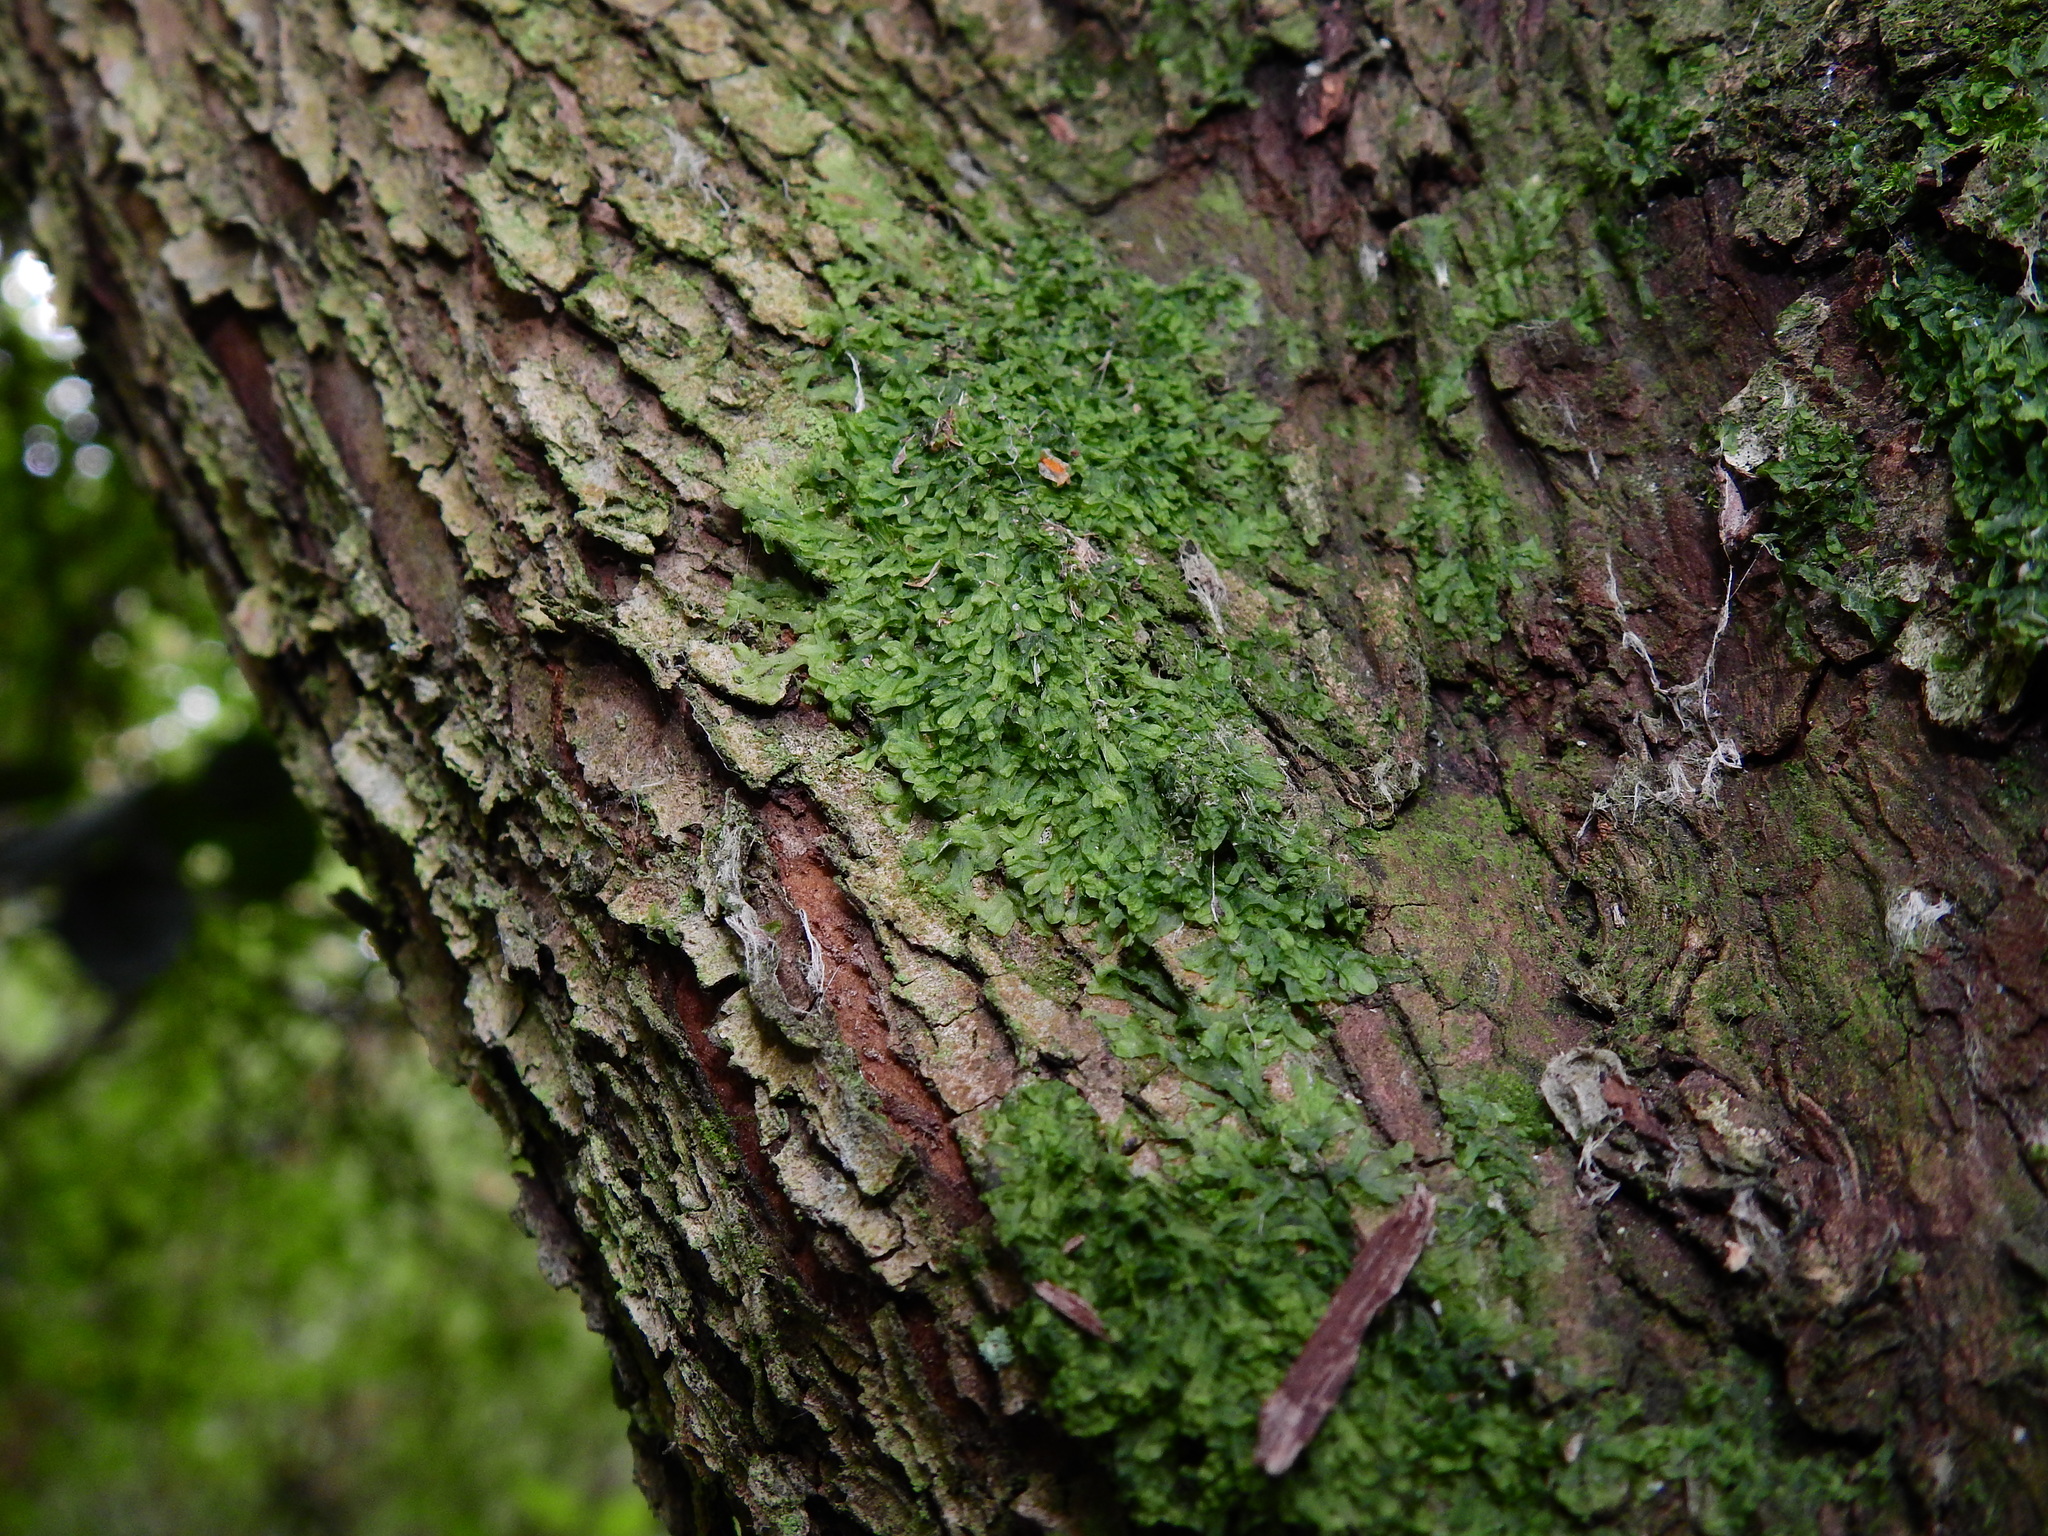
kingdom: Plantae
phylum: Marchantiophyta
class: Jungermanniopsida
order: Metzgeriales
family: Metzgeriaceae
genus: Metzgeria
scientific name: Metzgeria furcata
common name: Forked veilwort
